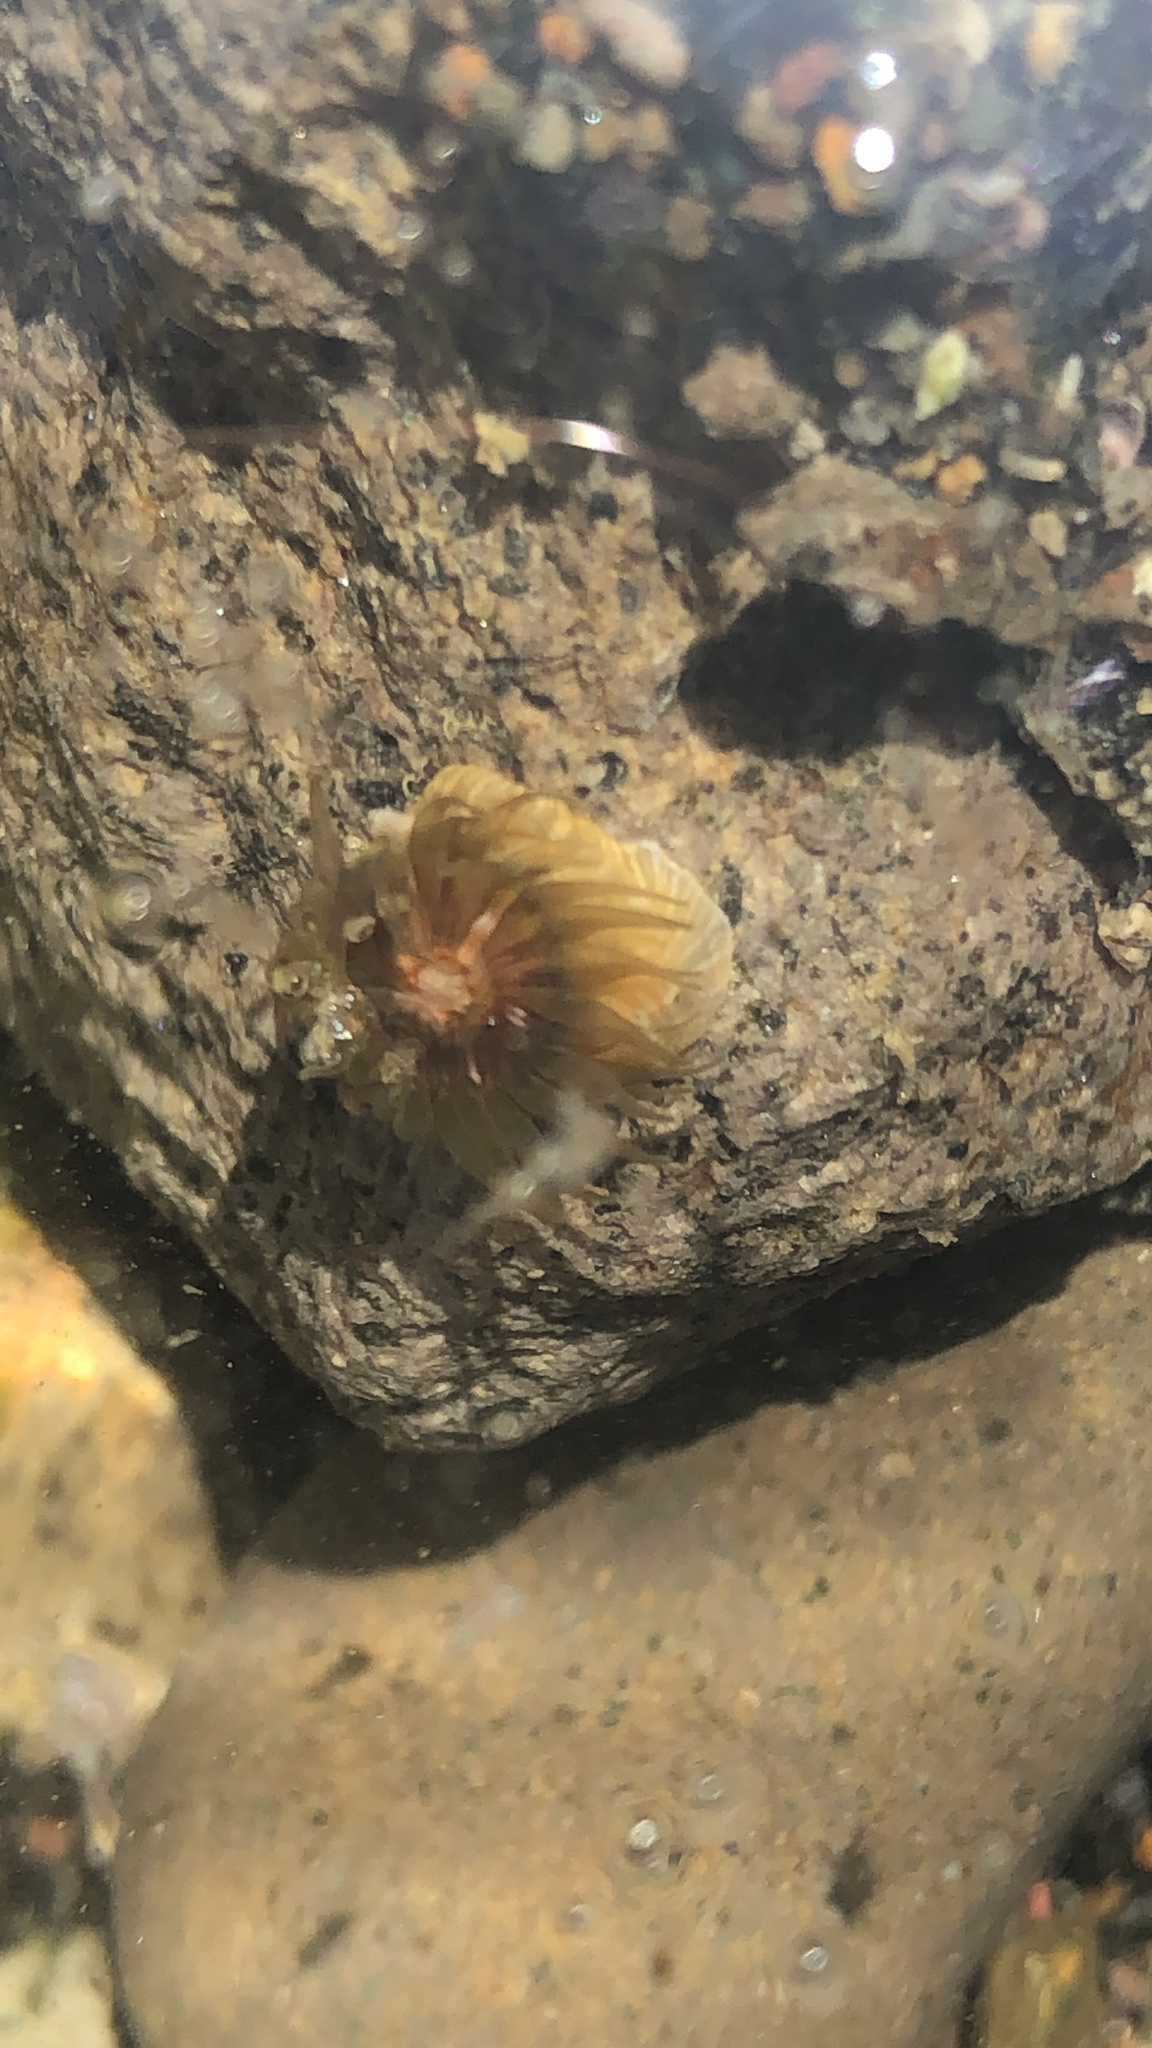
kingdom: Animalia
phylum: Cnidaria
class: Anthozoa
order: Actiniaria
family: Actiniidae
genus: Isactinia
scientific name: Isactinia olivacea
